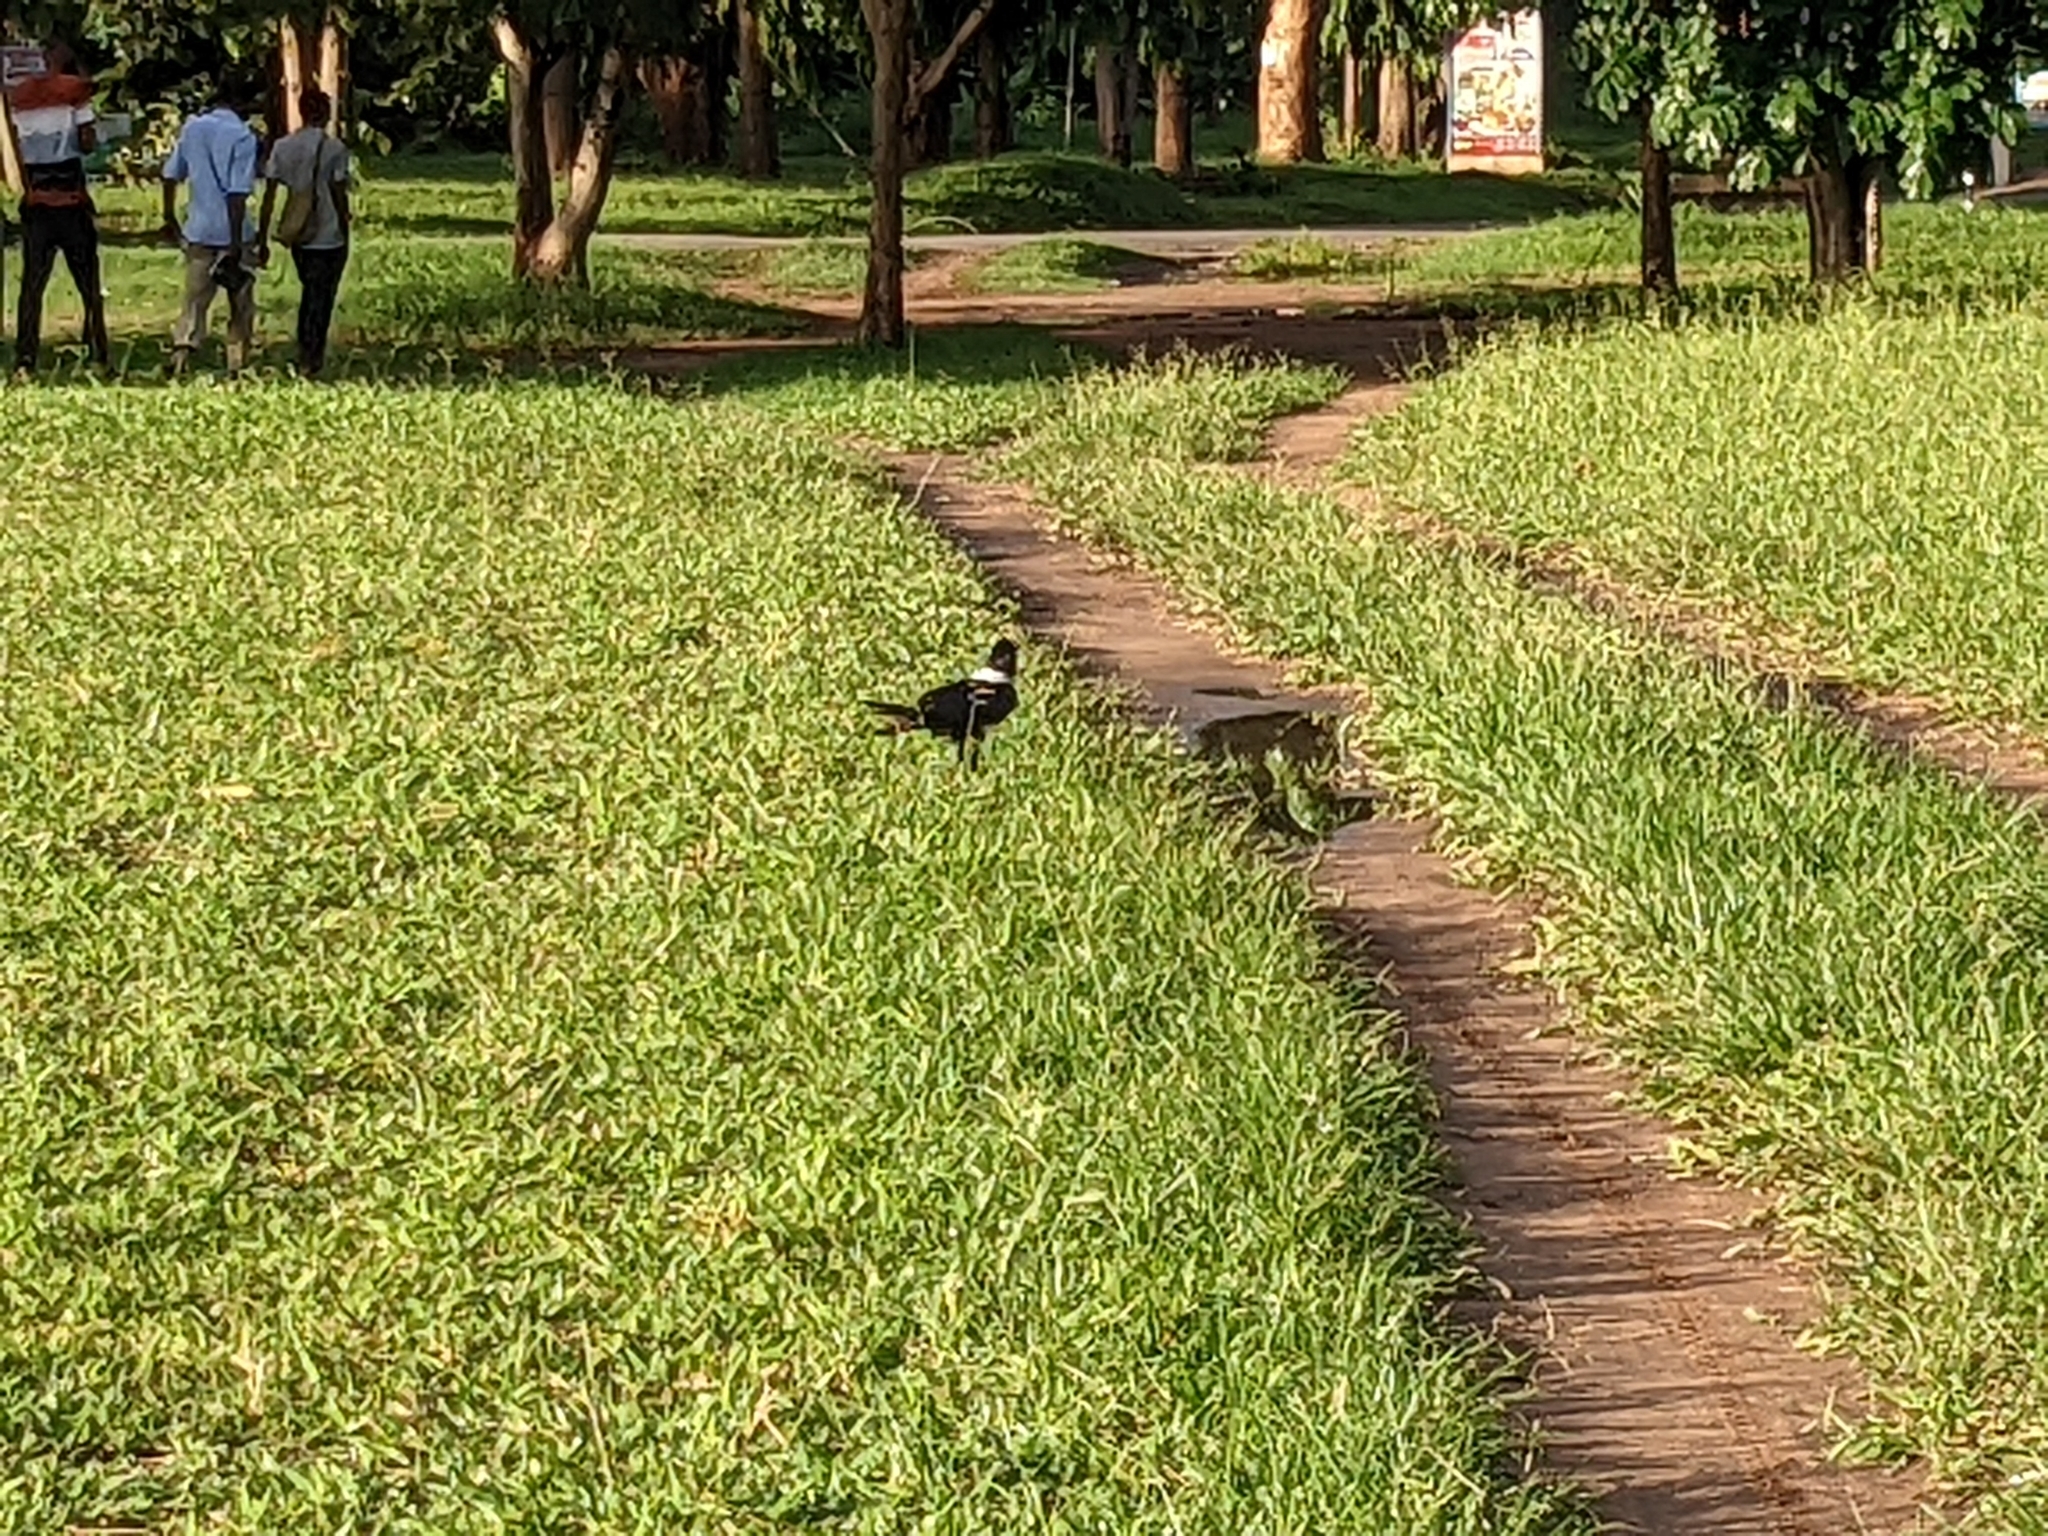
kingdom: Animalia
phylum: Chordata
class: Aves
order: Passeriformes
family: Corvidae
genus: Corvus
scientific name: Corvus albicollis
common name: White-necked raven
